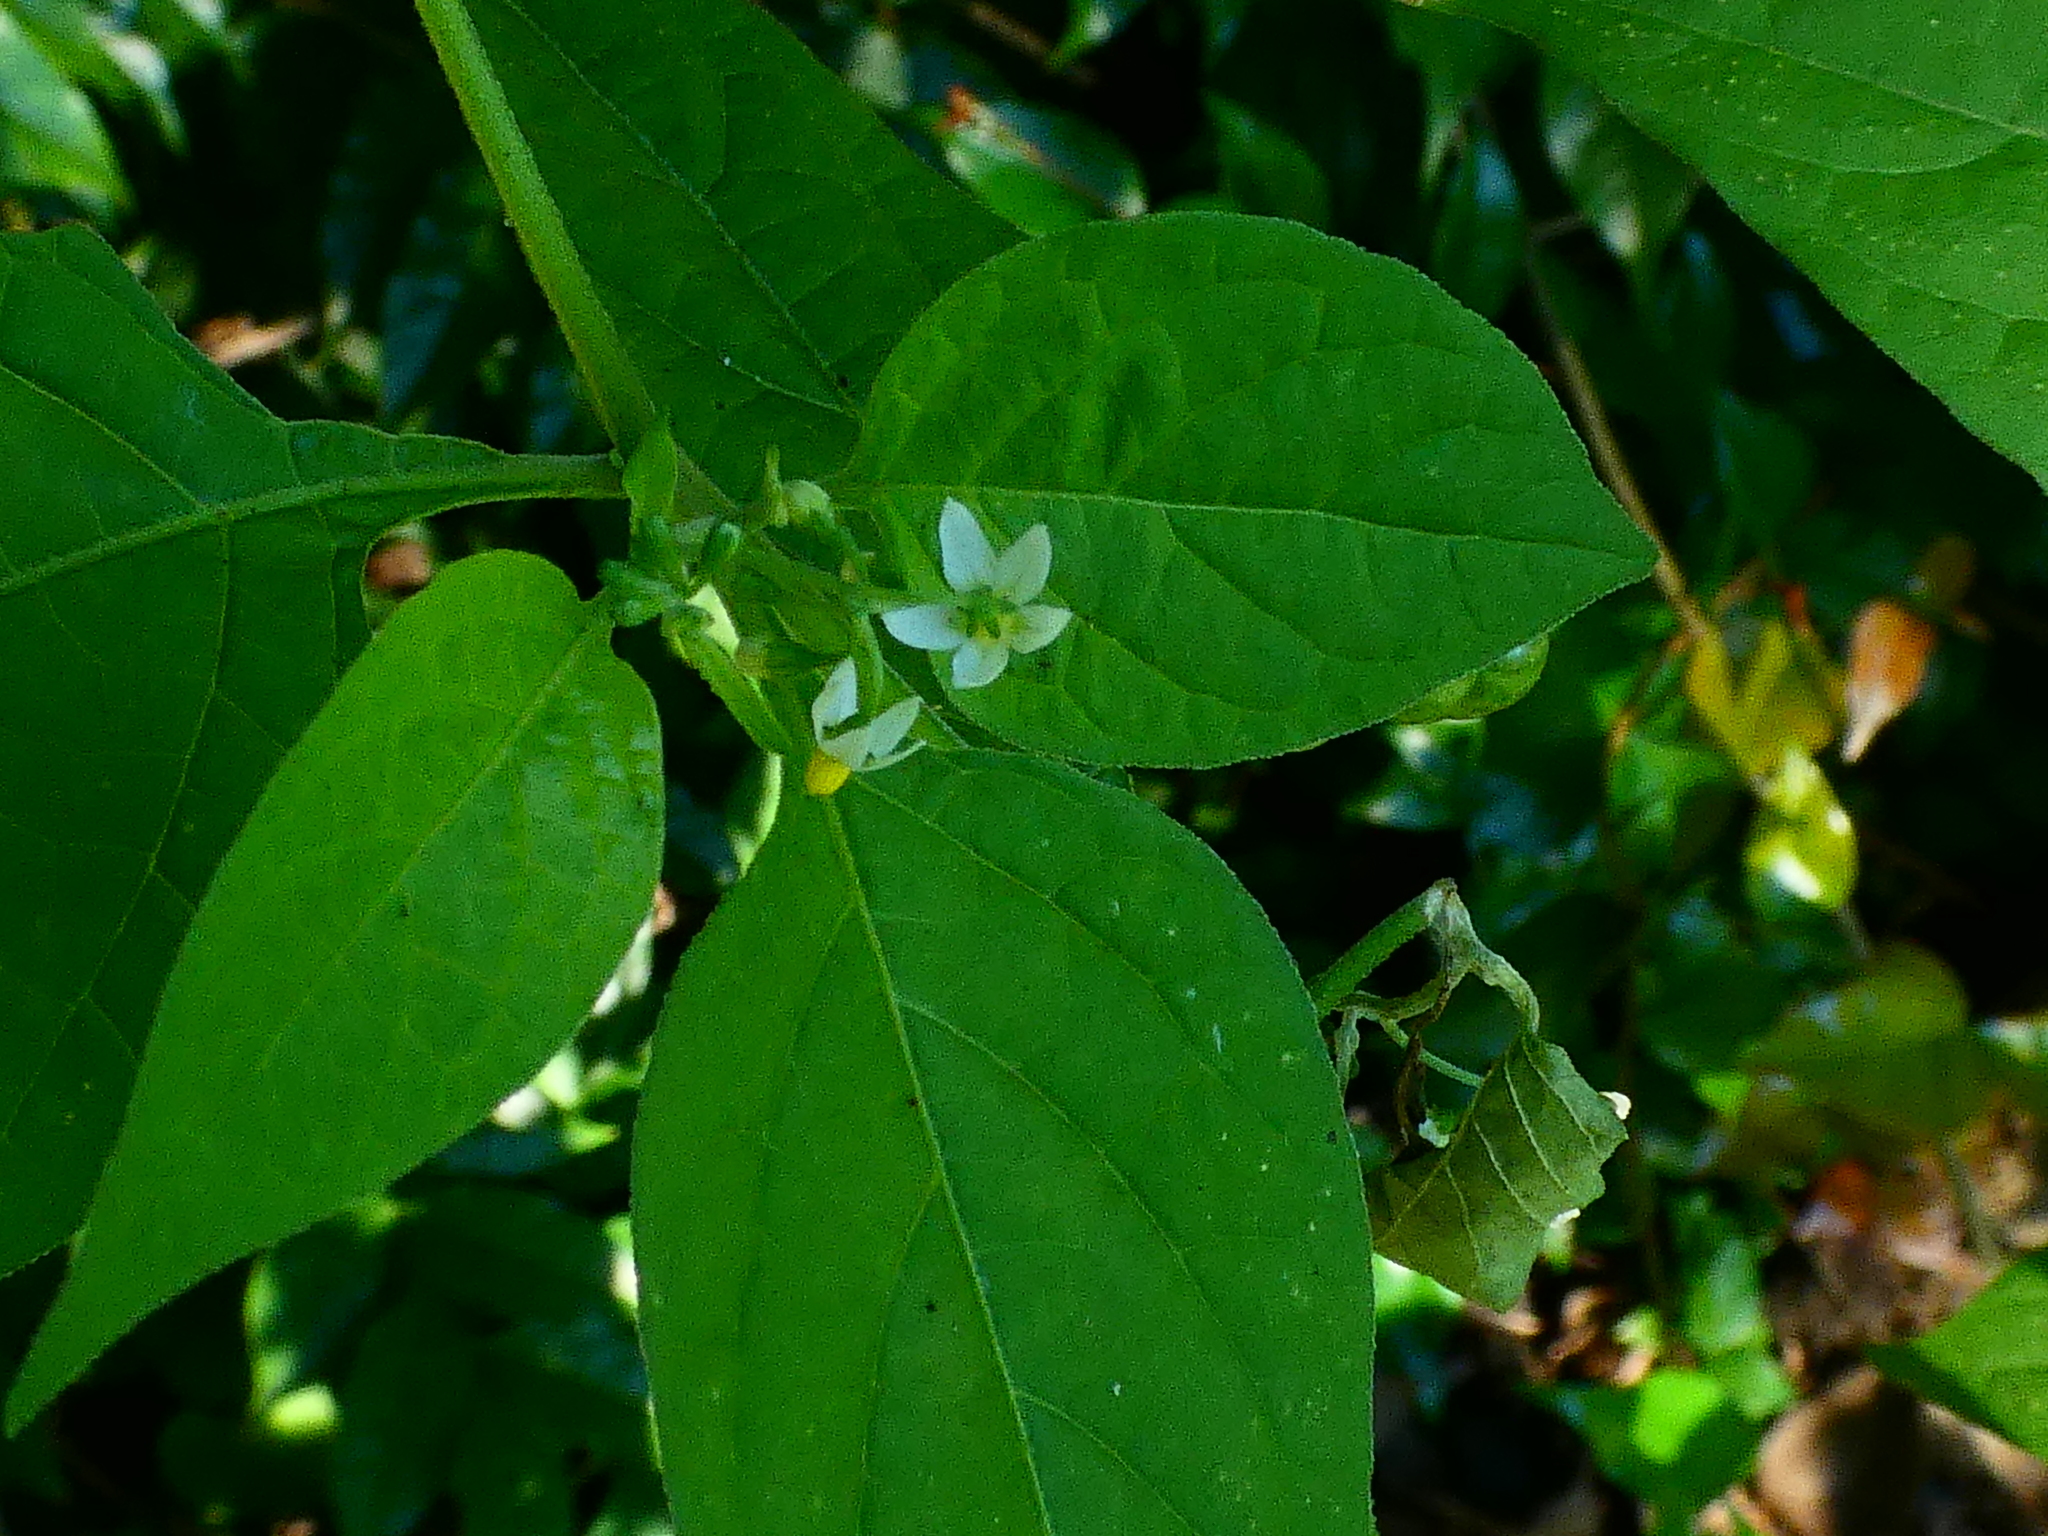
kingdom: Plantae
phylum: Tracheophyta
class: Magnoliopsida
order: Solanales
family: Solanaceae
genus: Solanum
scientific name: Solanum americanum
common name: American black nightshade
